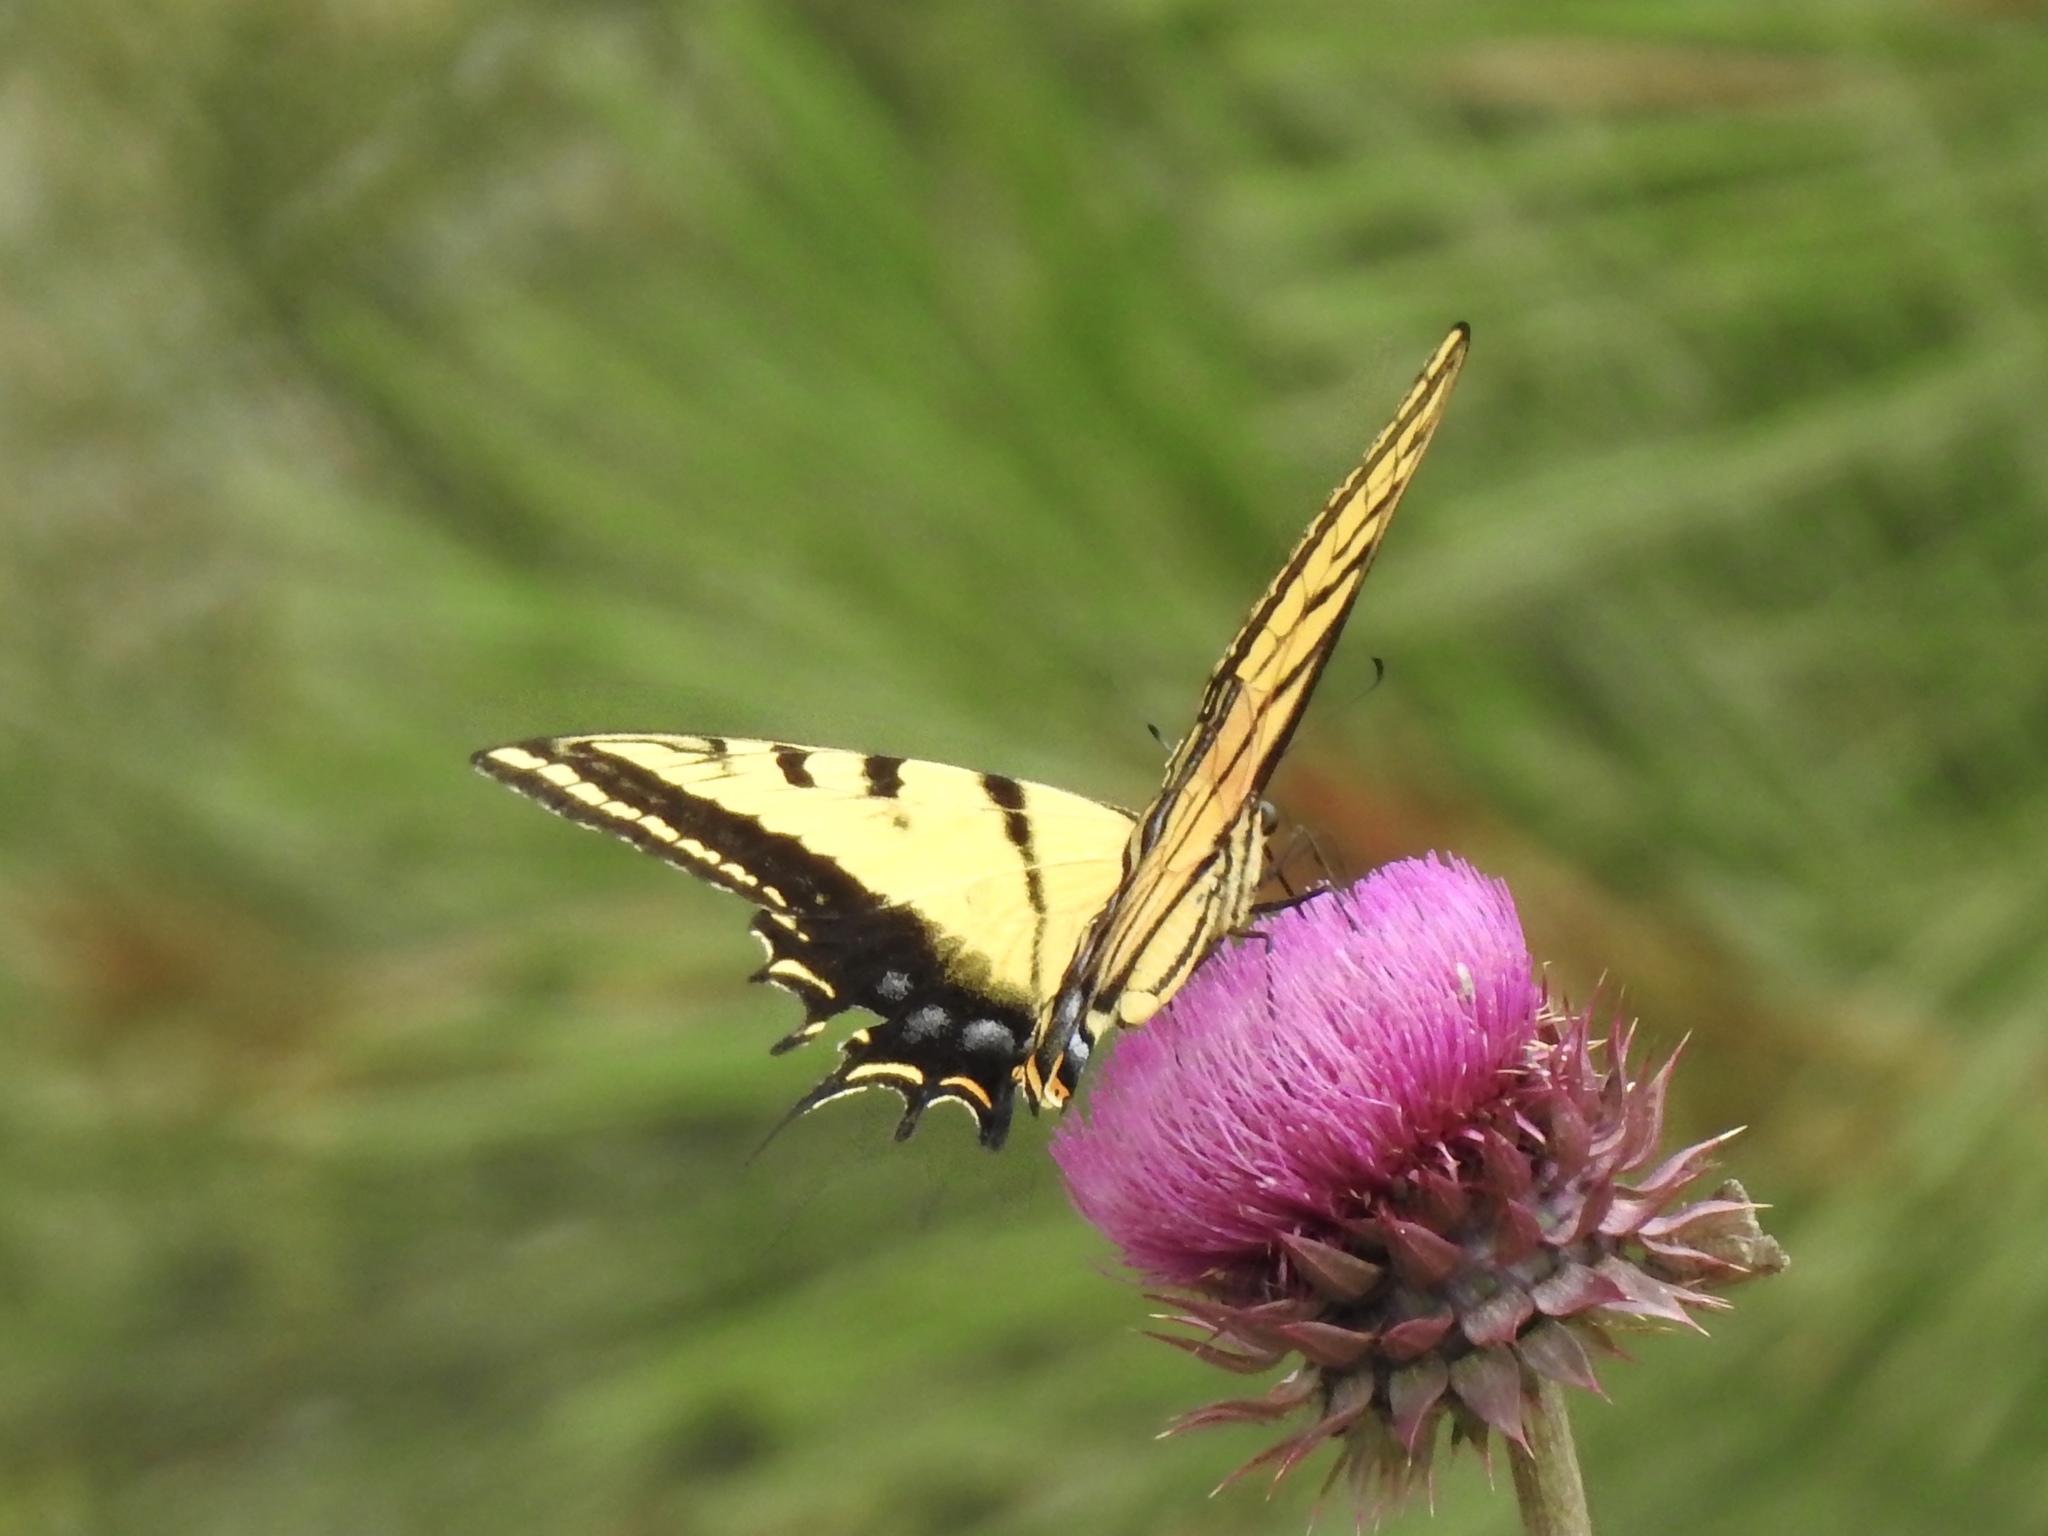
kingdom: Animalia
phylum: Arthropoda
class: Insecta
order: Lepidoptera
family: Papilionidae
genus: Papilio
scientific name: Papilio multicaudata
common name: Two-tailed tiger swallowtail
